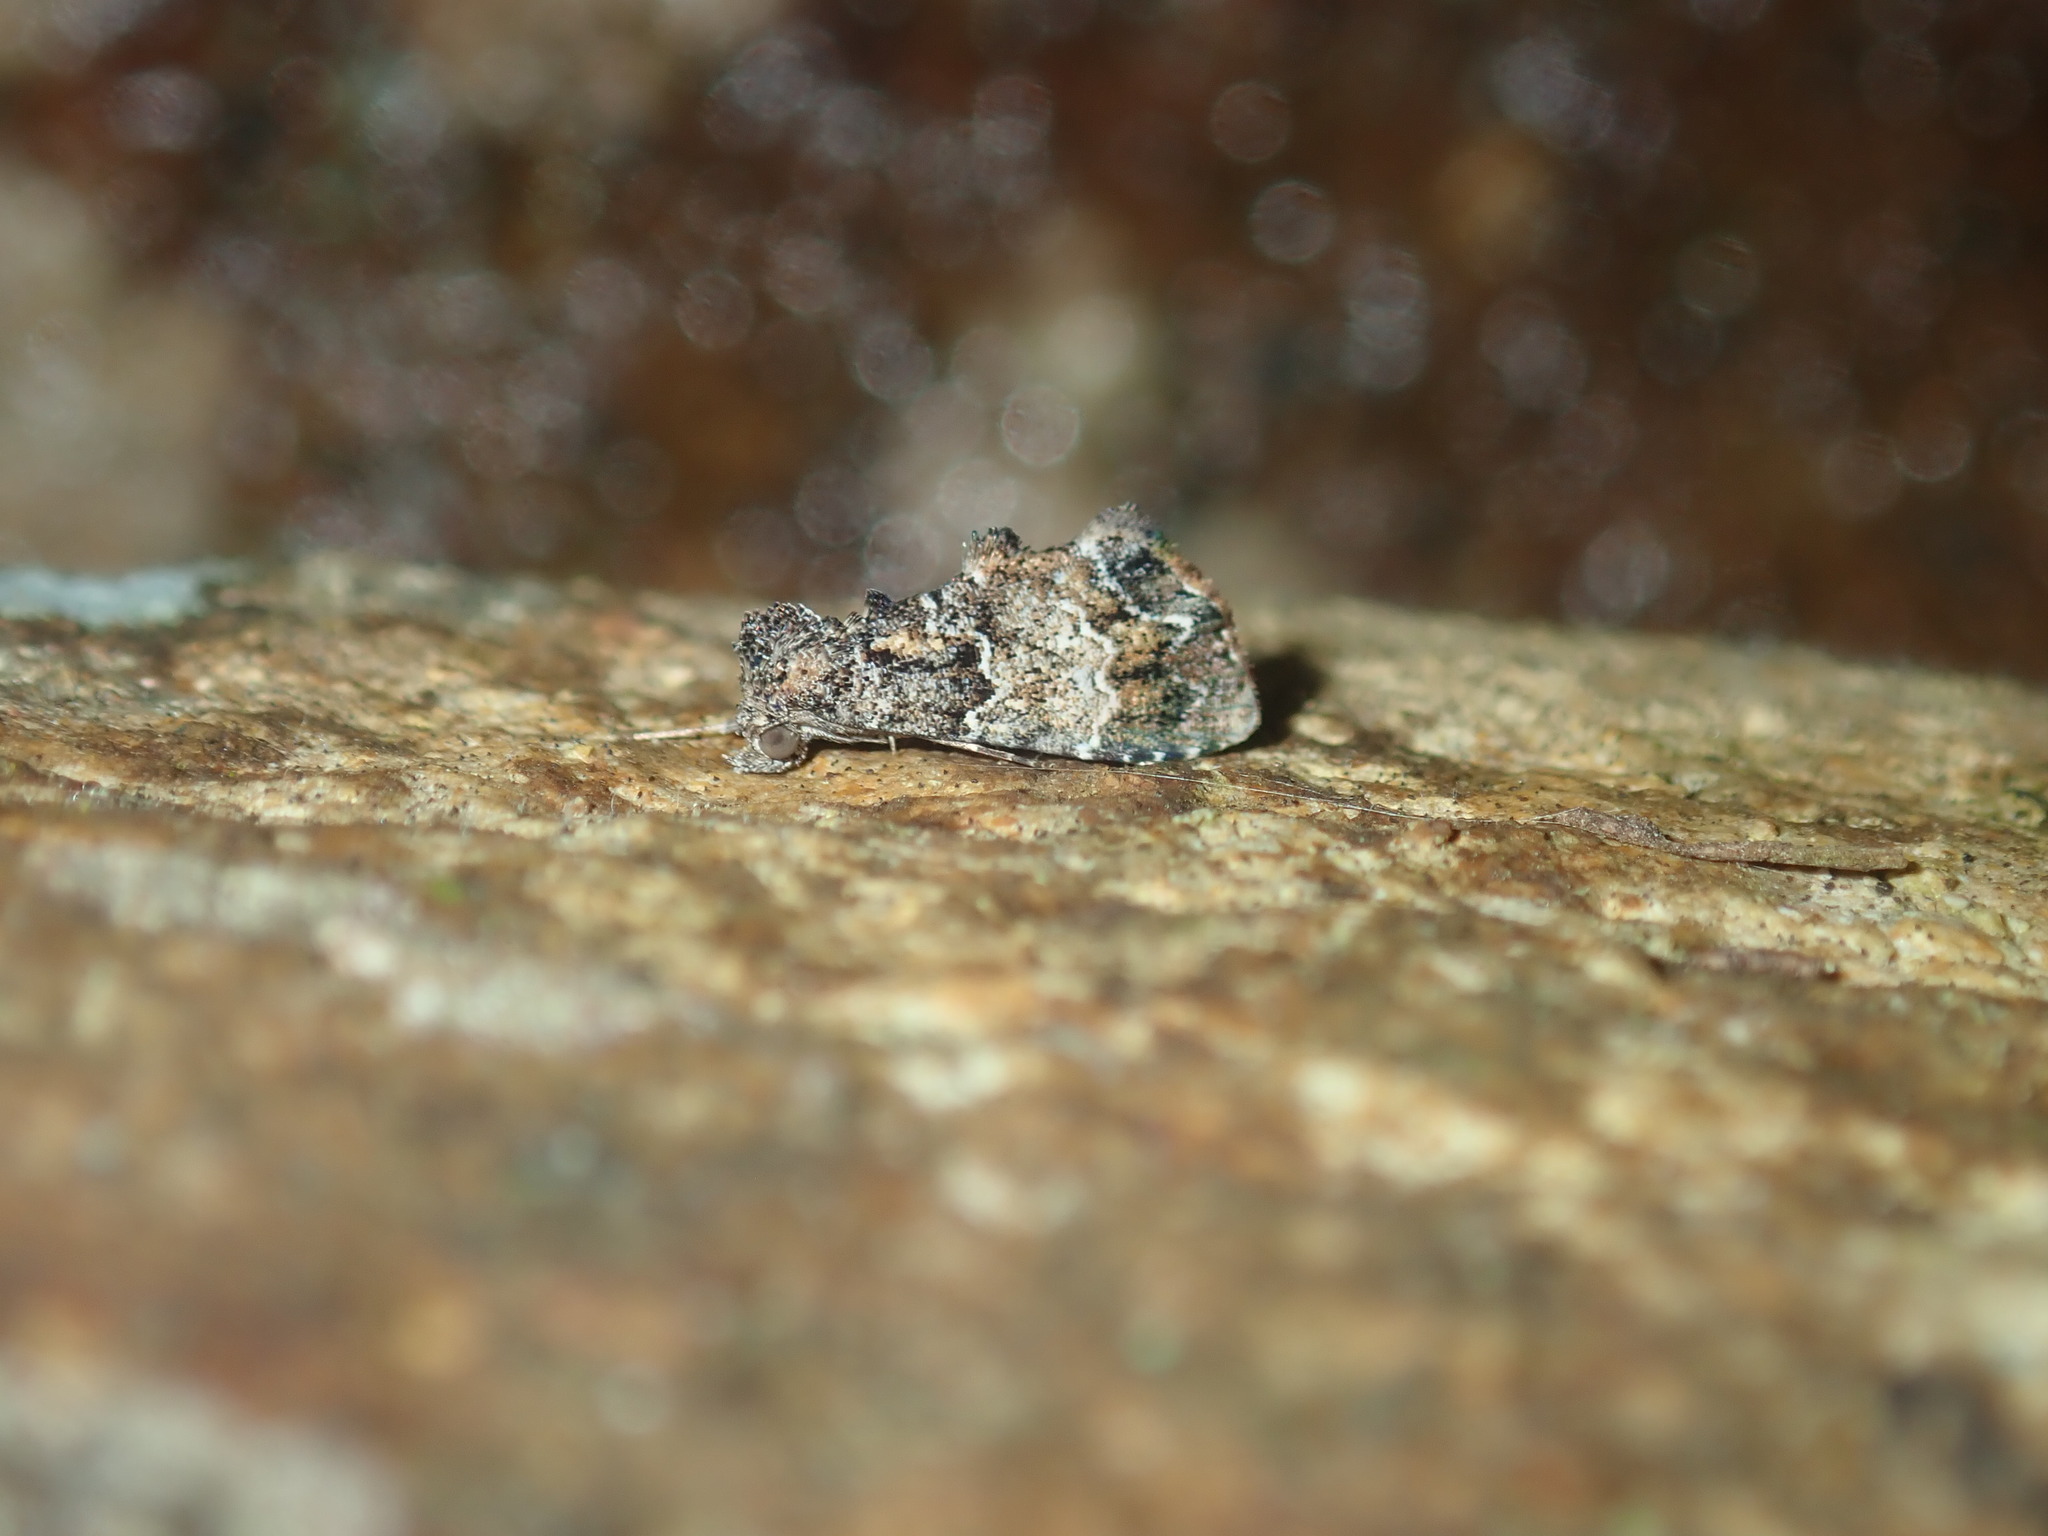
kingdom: Animalia
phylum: Arthropoda
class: Insecta
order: Lepidoptera
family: Erebidae
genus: Arrade
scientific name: Arrade destituta
